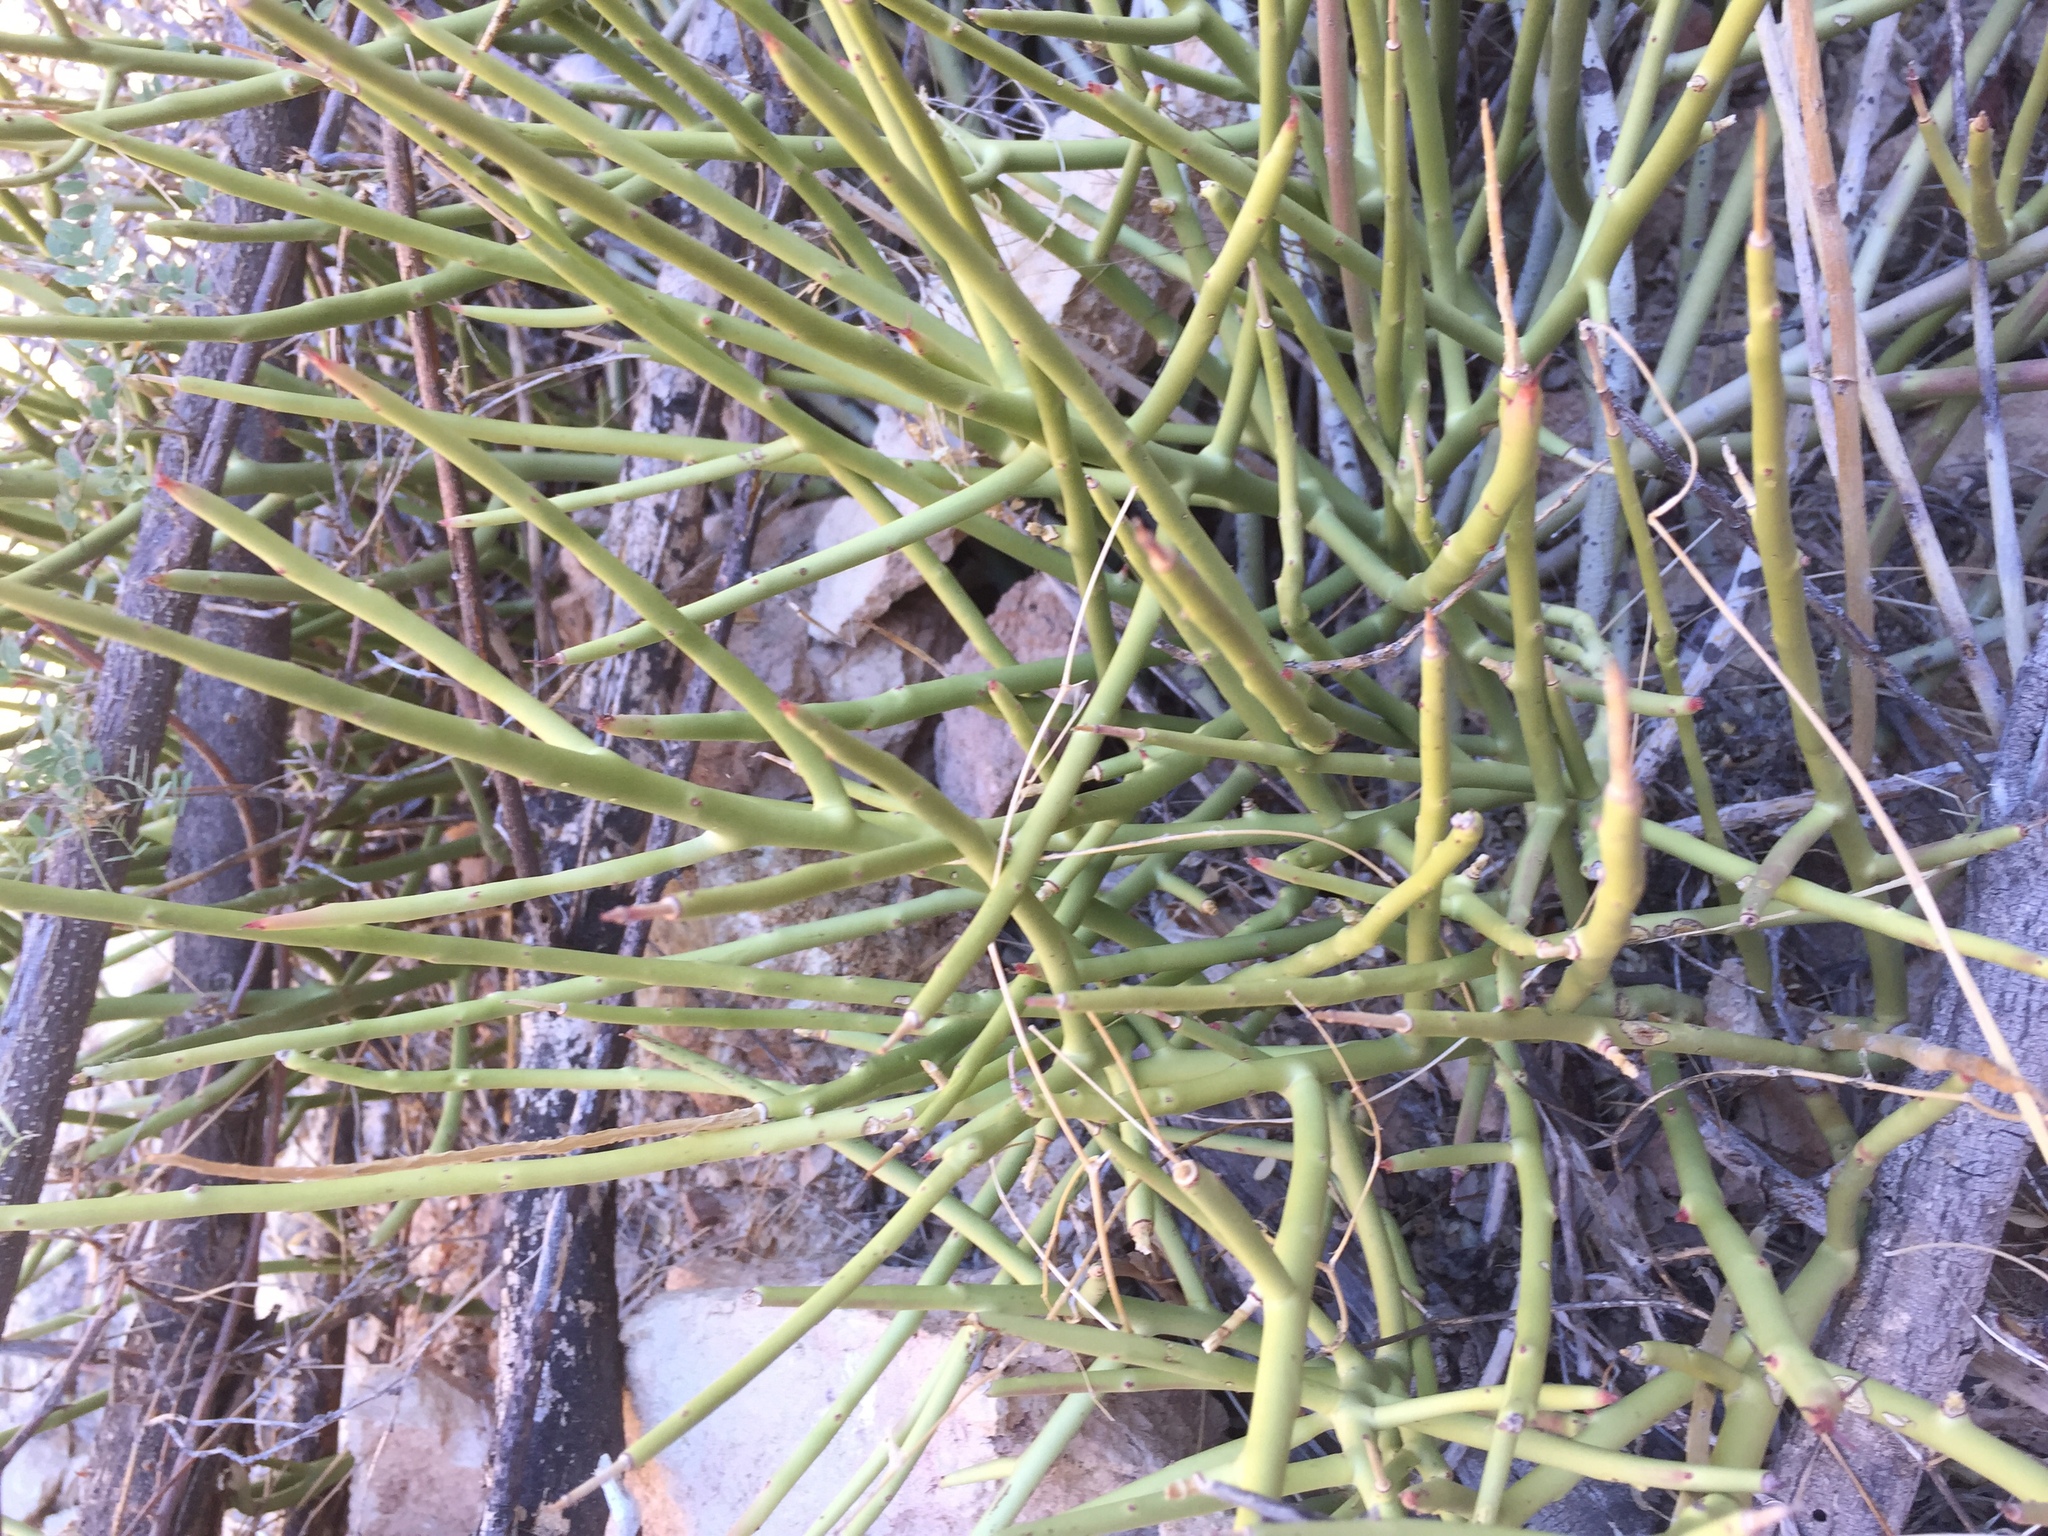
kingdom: Plantae
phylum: Tracheophyta
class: Magnoliopsida
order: Malpighiales
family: Euphorbiaceae
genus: Euphorbia
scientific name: Euphorbia ceroderma
